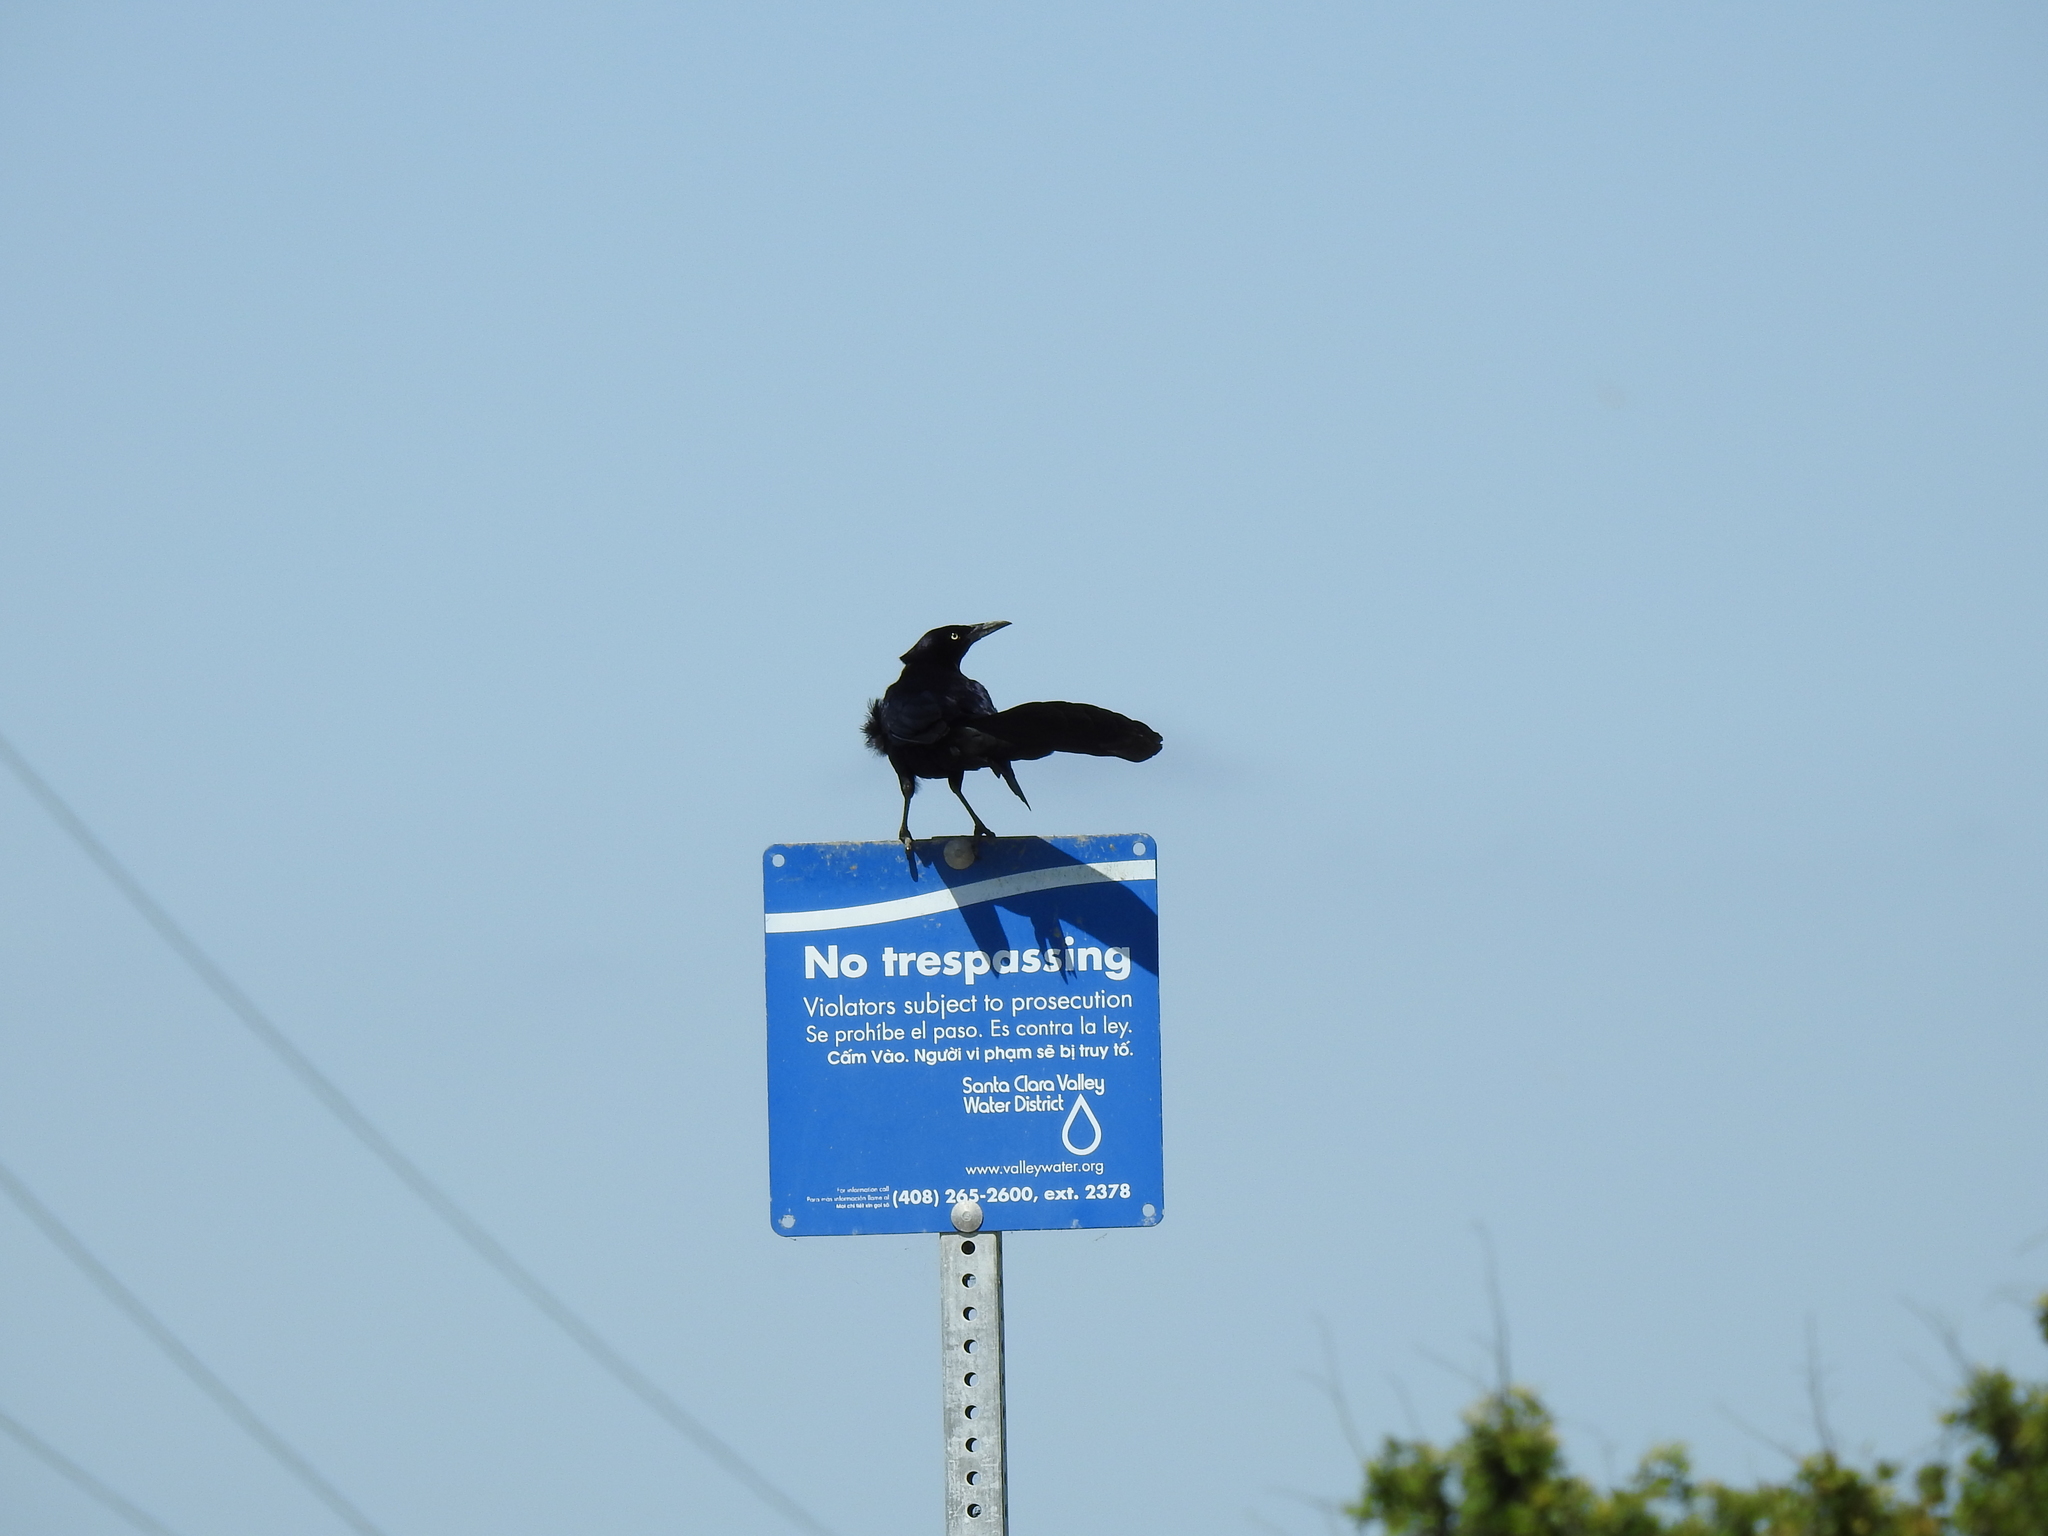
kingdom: Animalia
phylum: Chordata
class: Aves
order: Passeriformes
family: Icteridae
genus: Quiscalus
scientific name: Quiscalus mexicanus
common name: Great-tailed grackle
